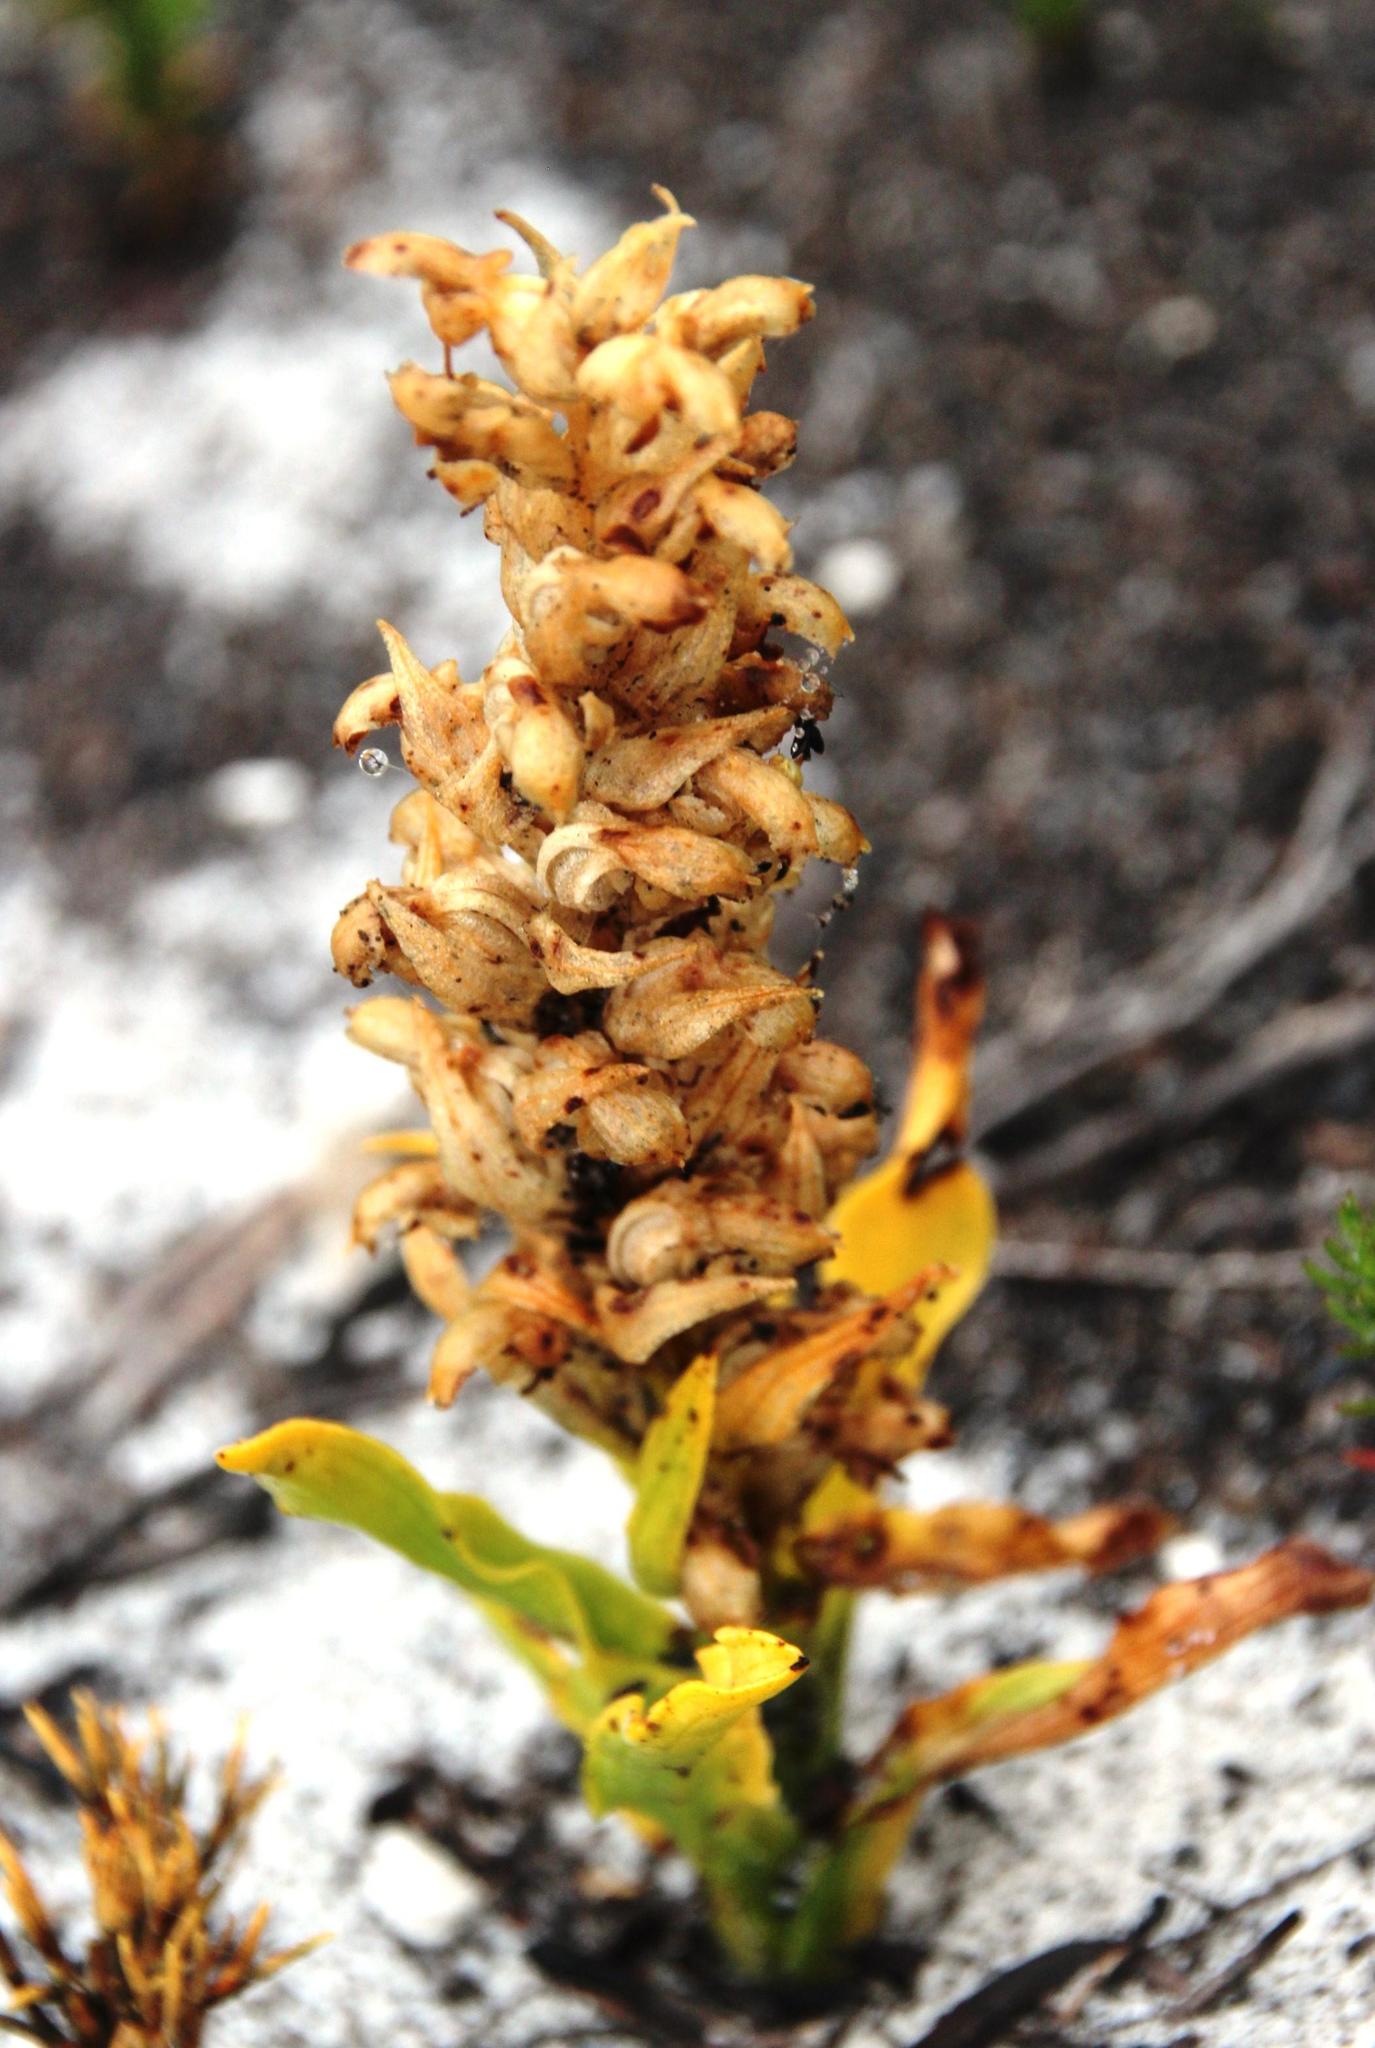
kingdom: Plantae
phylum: Tracheophyta
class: Liliopsida
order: Asparagales
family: Orchidaceae
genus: Disa
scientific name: Disa cylindrica
